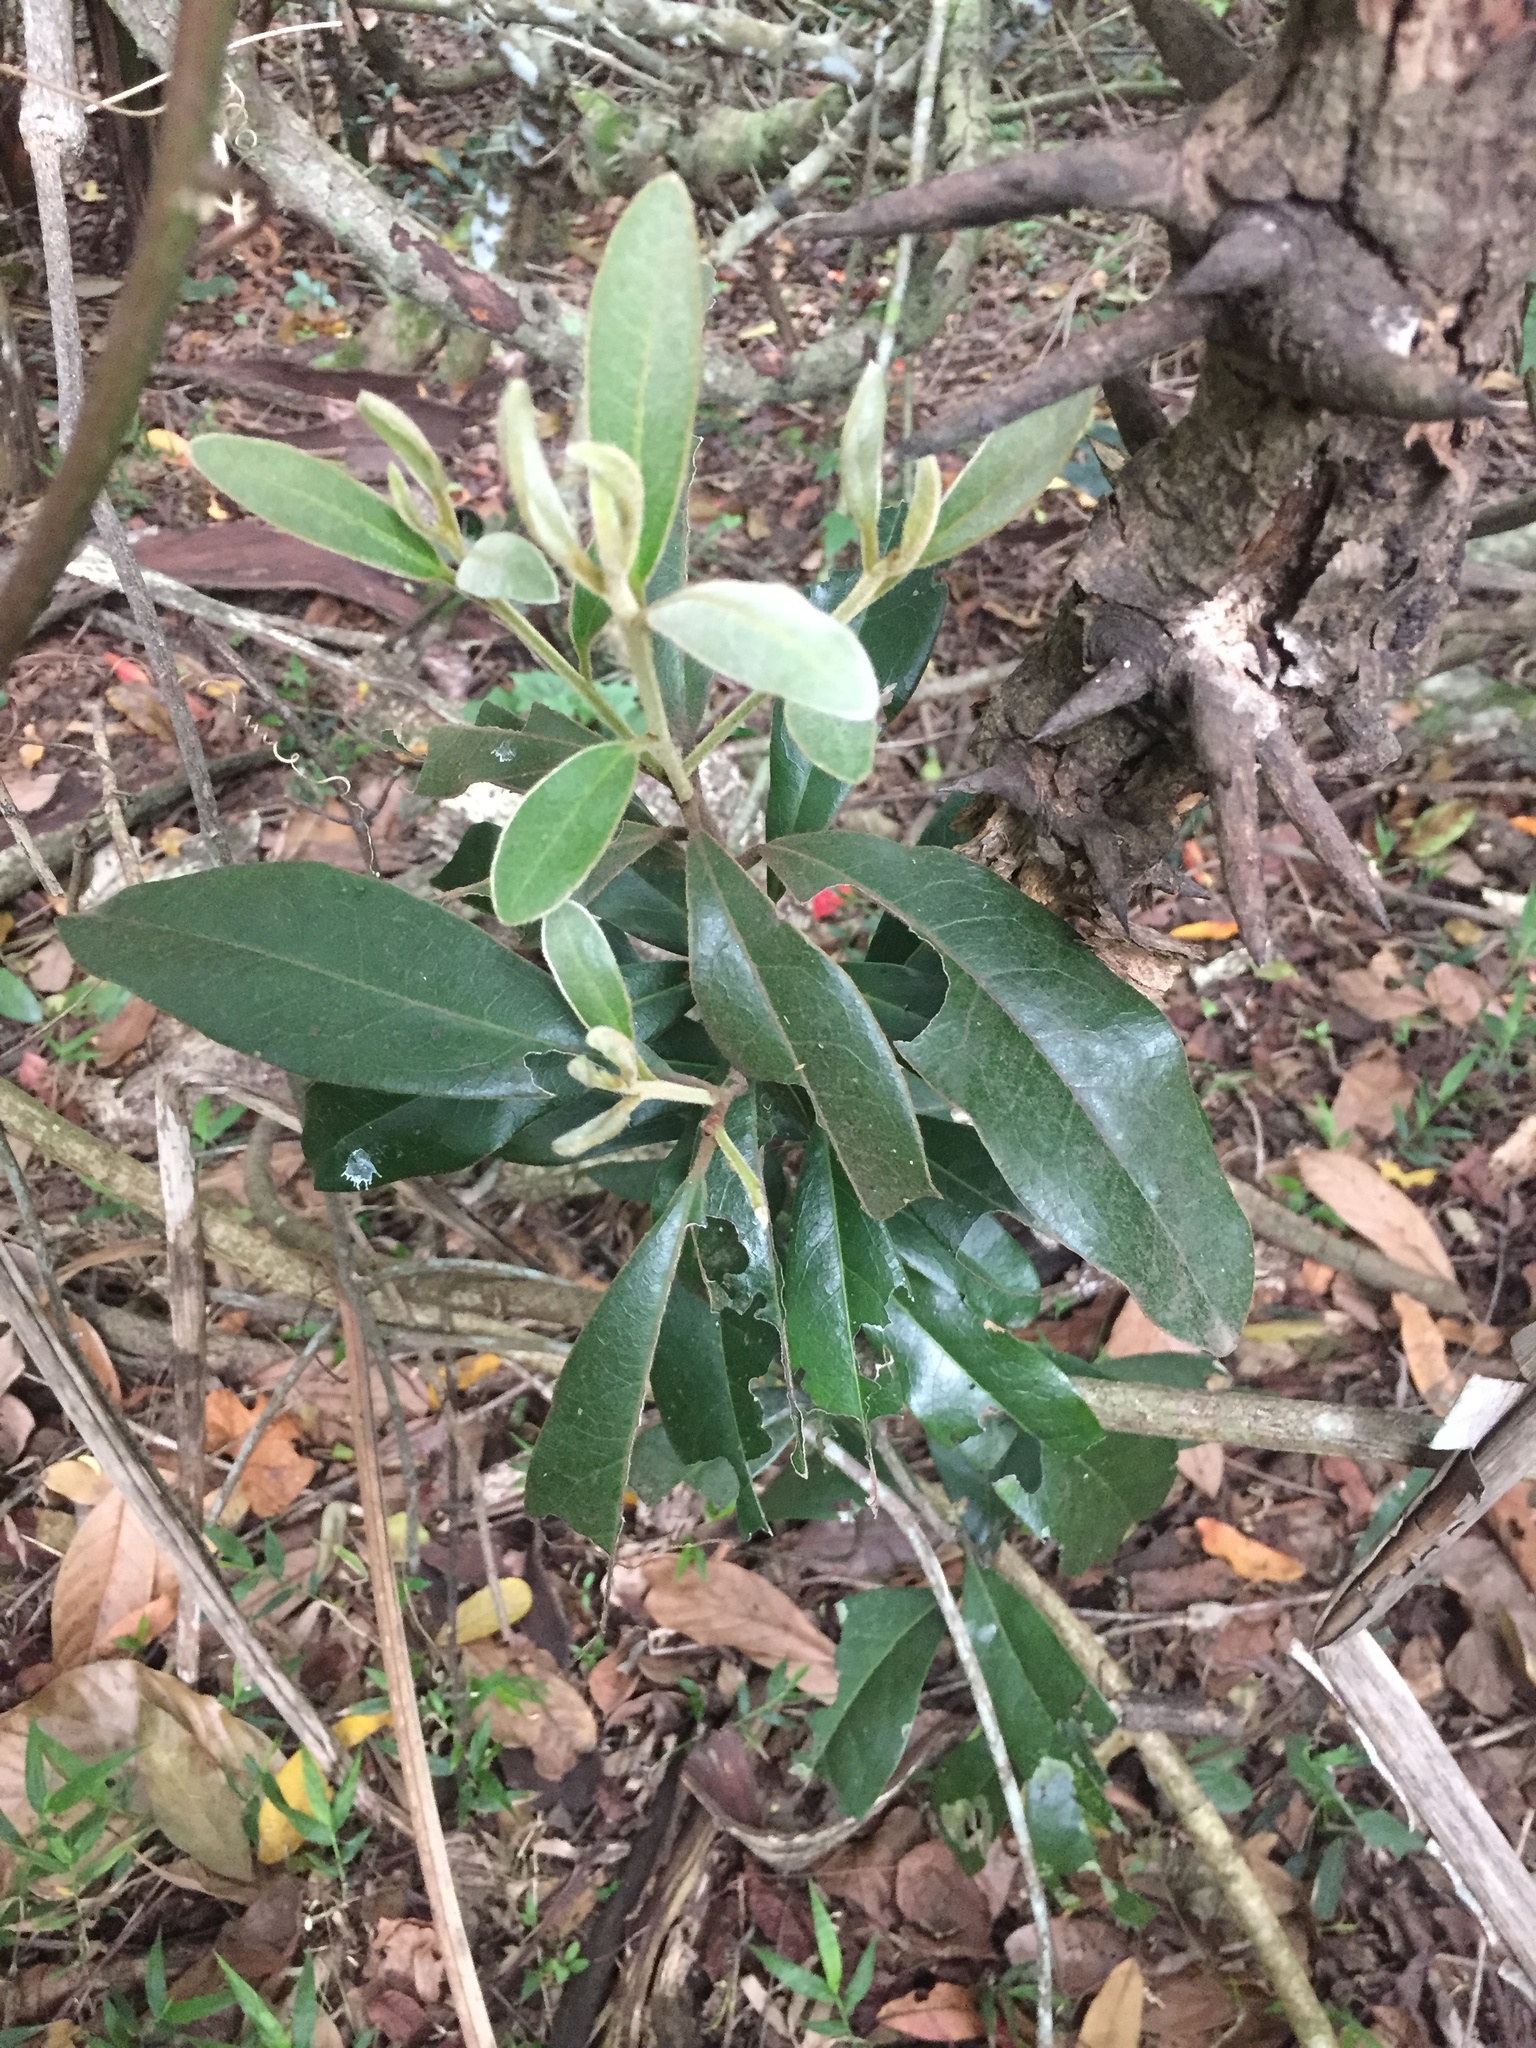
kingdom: Plantae
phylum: Tracheophyta
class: Magnoliopsida
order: Ericales
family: Ebenaceae
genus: Euclea
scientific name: Euclea natalensis
